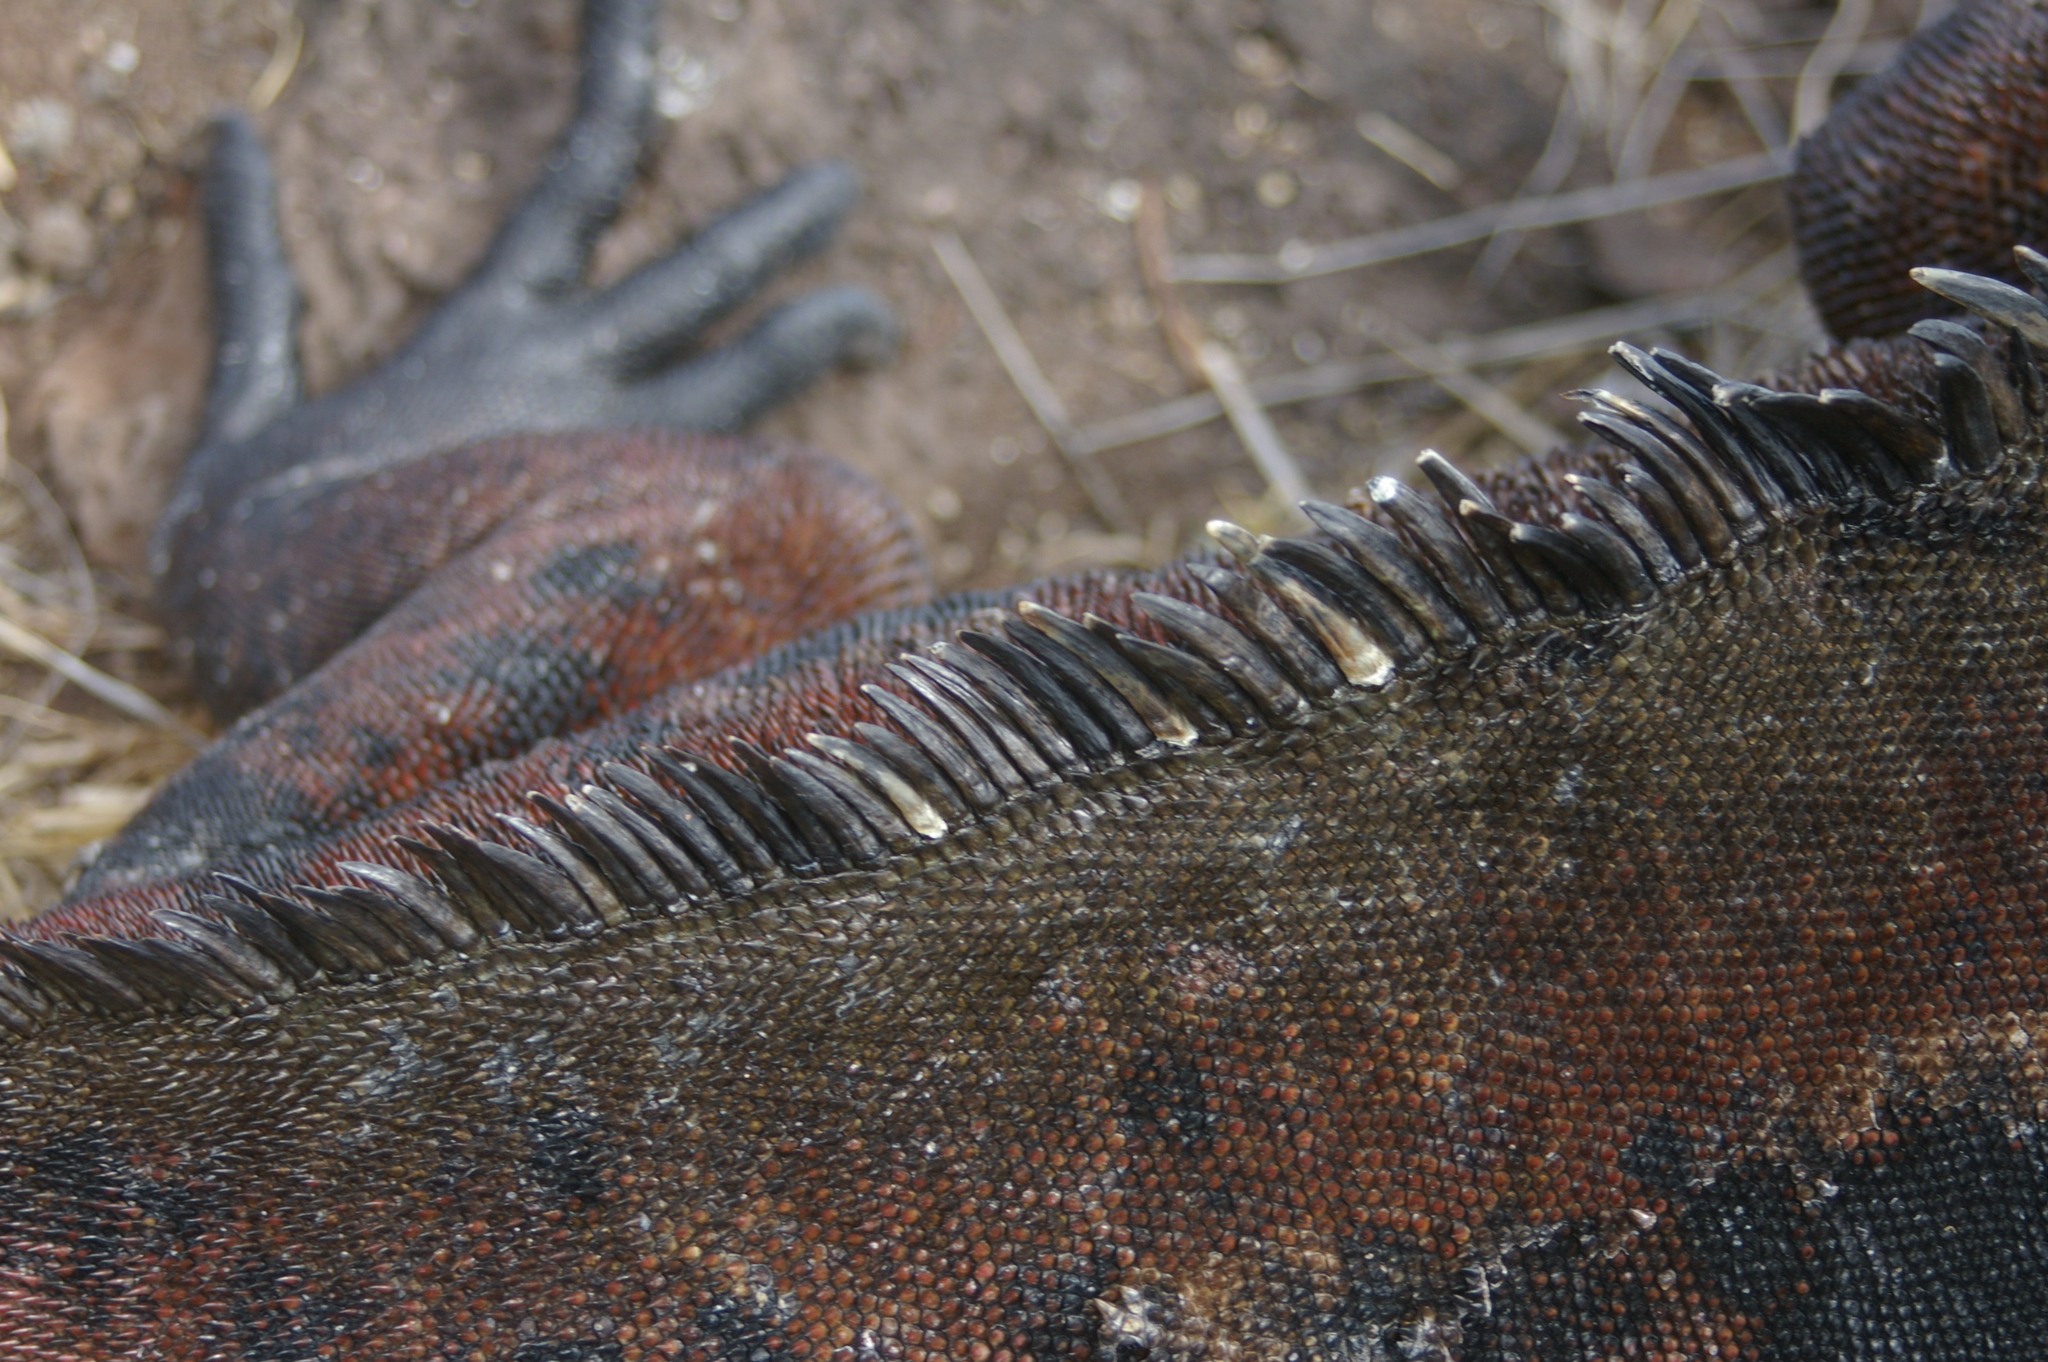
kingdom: Animalia
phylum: Chordata
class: Squamata
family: Iguanidae
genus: Amblyrhynchus
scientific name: Amblyrhynchus cristatus
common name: Marine iguana
